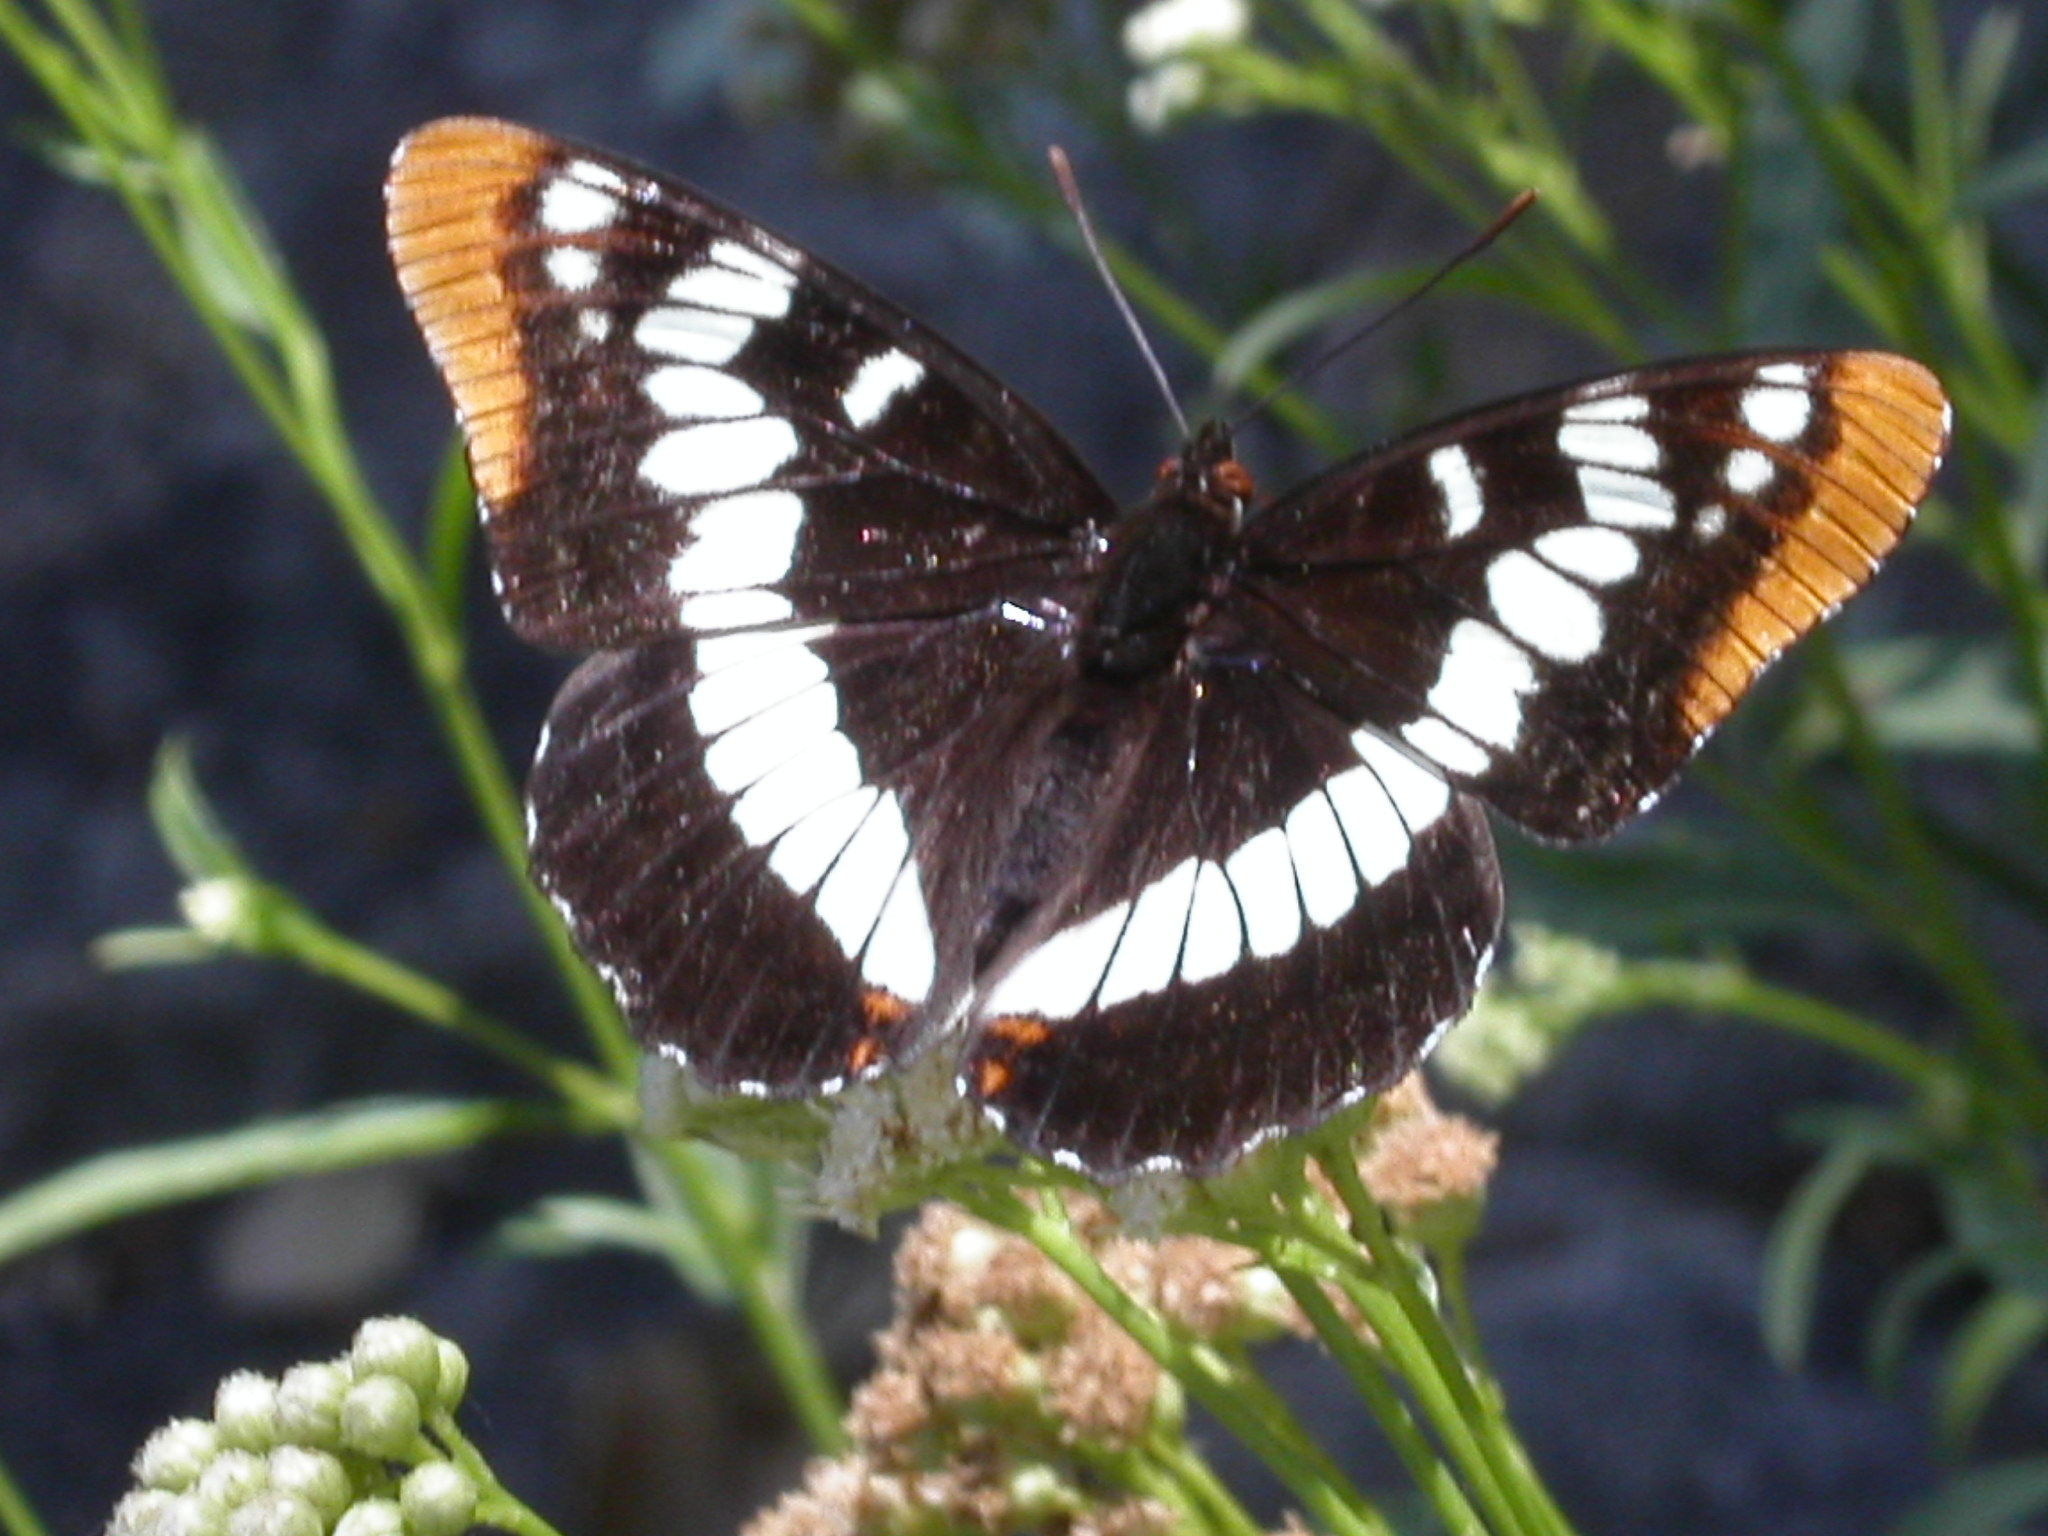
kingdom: Animalia
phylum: Arthropoda
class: Insecta
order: Lepidoptera
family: Nymphalidae
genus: Limenitis
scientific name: Limenitis lorquini
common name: Lorquin's admiral
